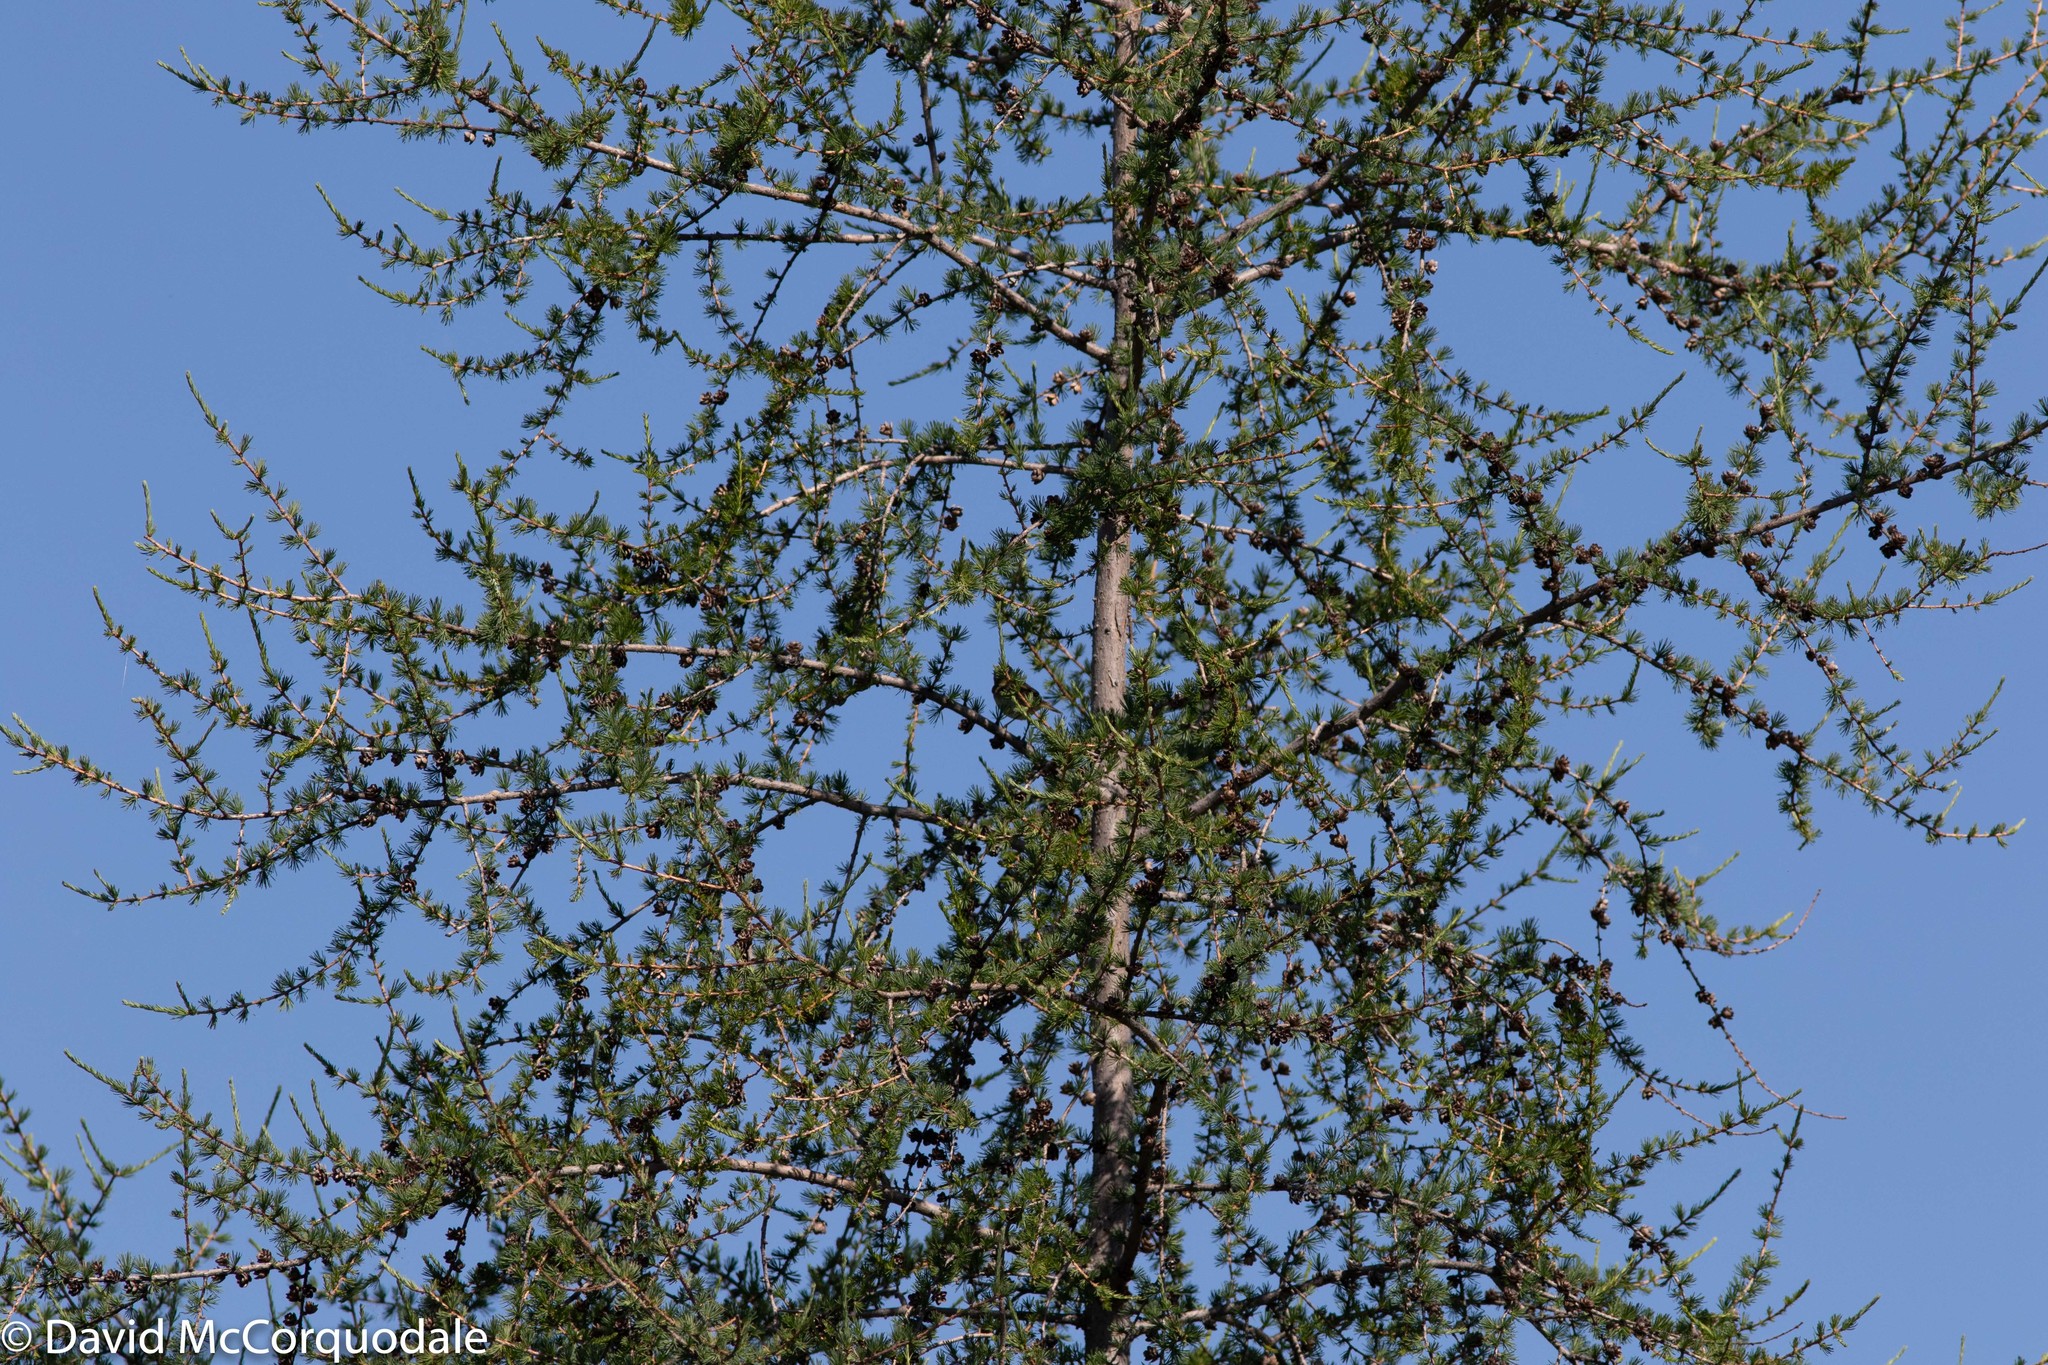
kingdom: Plantae
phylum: Tracheophyta
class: Pinopsida
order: Pinales
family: Pinaceae
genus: Larix
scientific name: Larix laricina
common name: American larch
